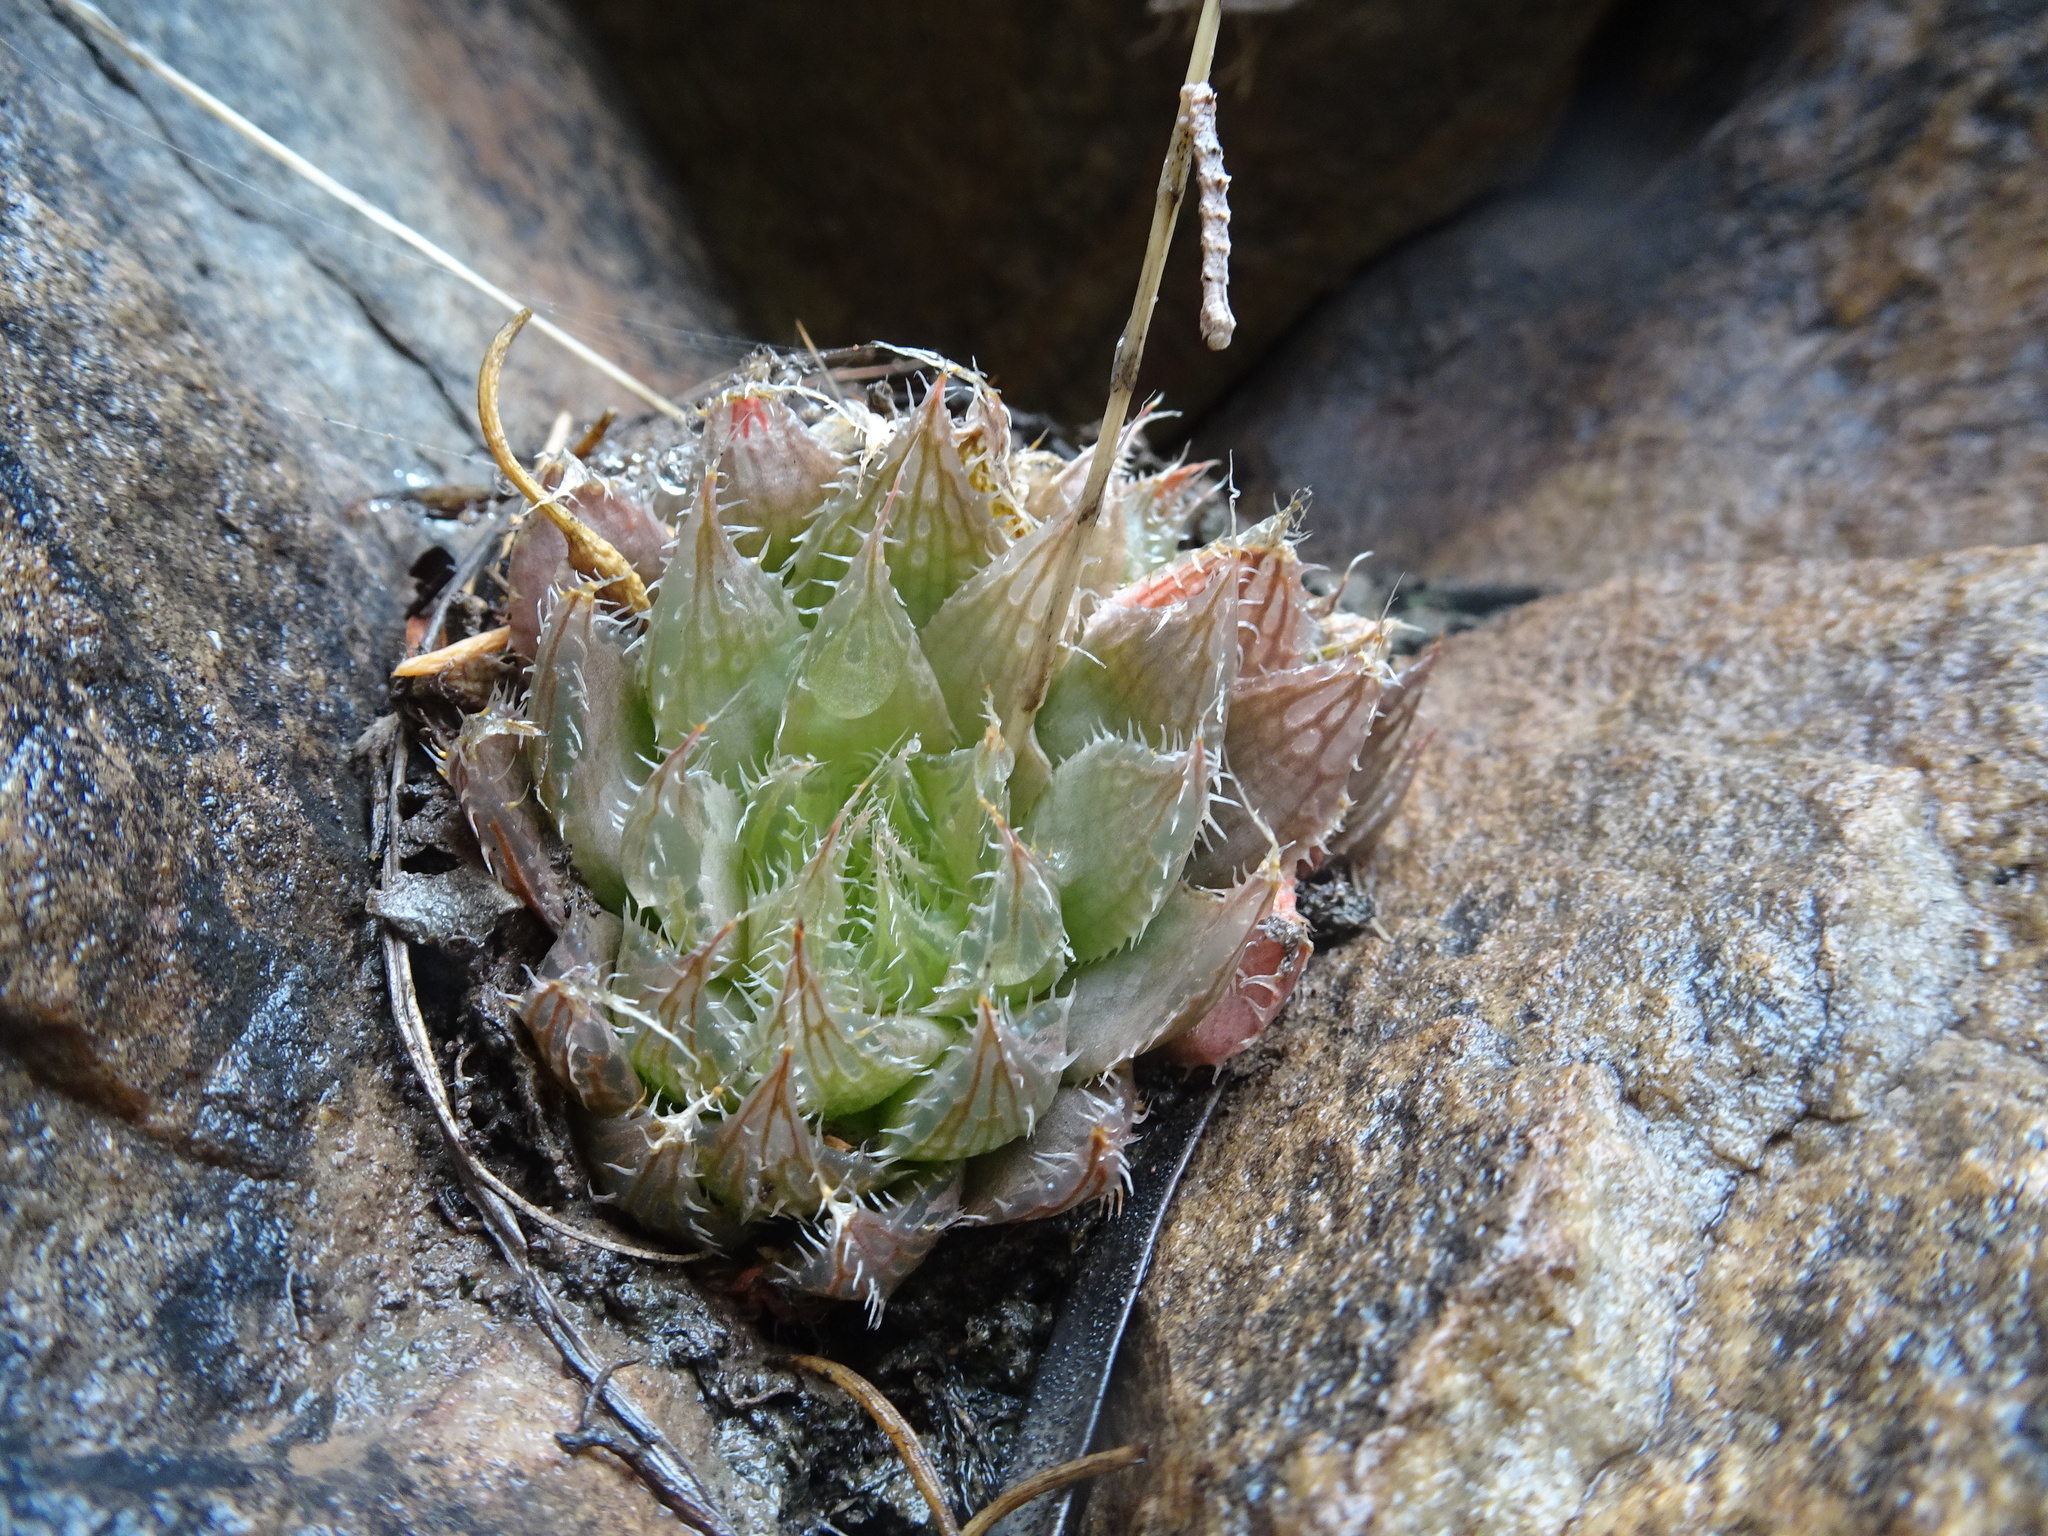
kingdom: Plantae
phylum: Tracheophyta
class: Liliopsida
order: Asparagales
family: Asphodelaceae
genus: Haworthia
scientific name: Haworthia mucronata
